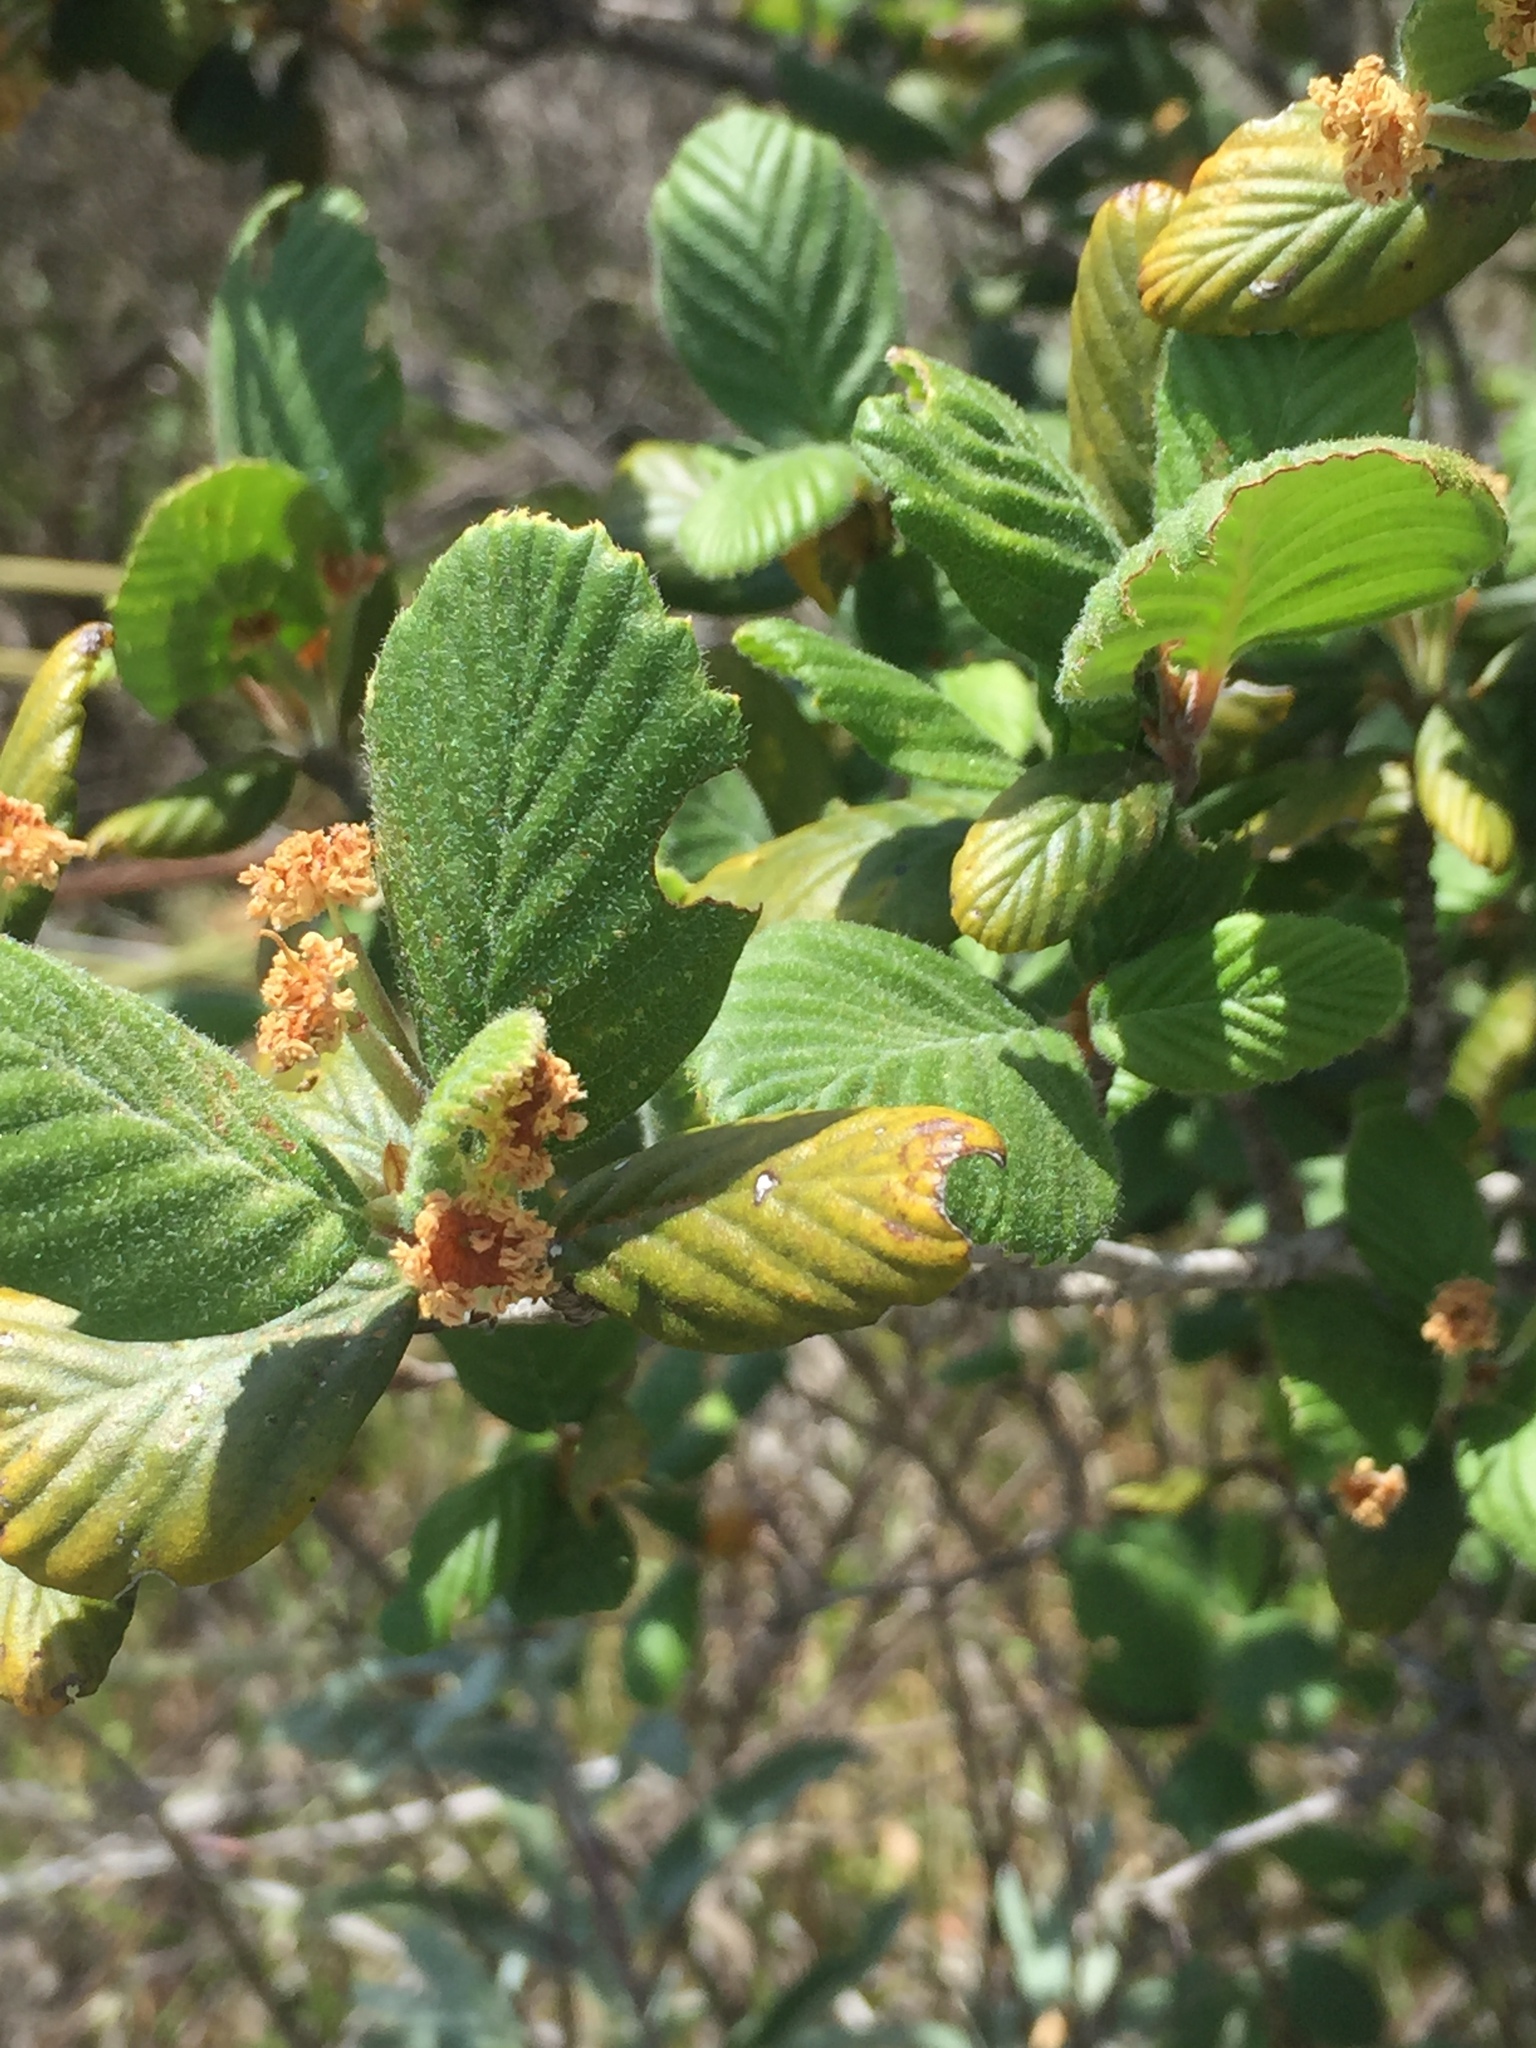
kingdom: Plantae
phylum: Tracheophyta
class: Magnoliopsida
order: Rosales
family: Rosaceae
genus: Cercocarpus
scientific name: Cercocarpus betuloides
